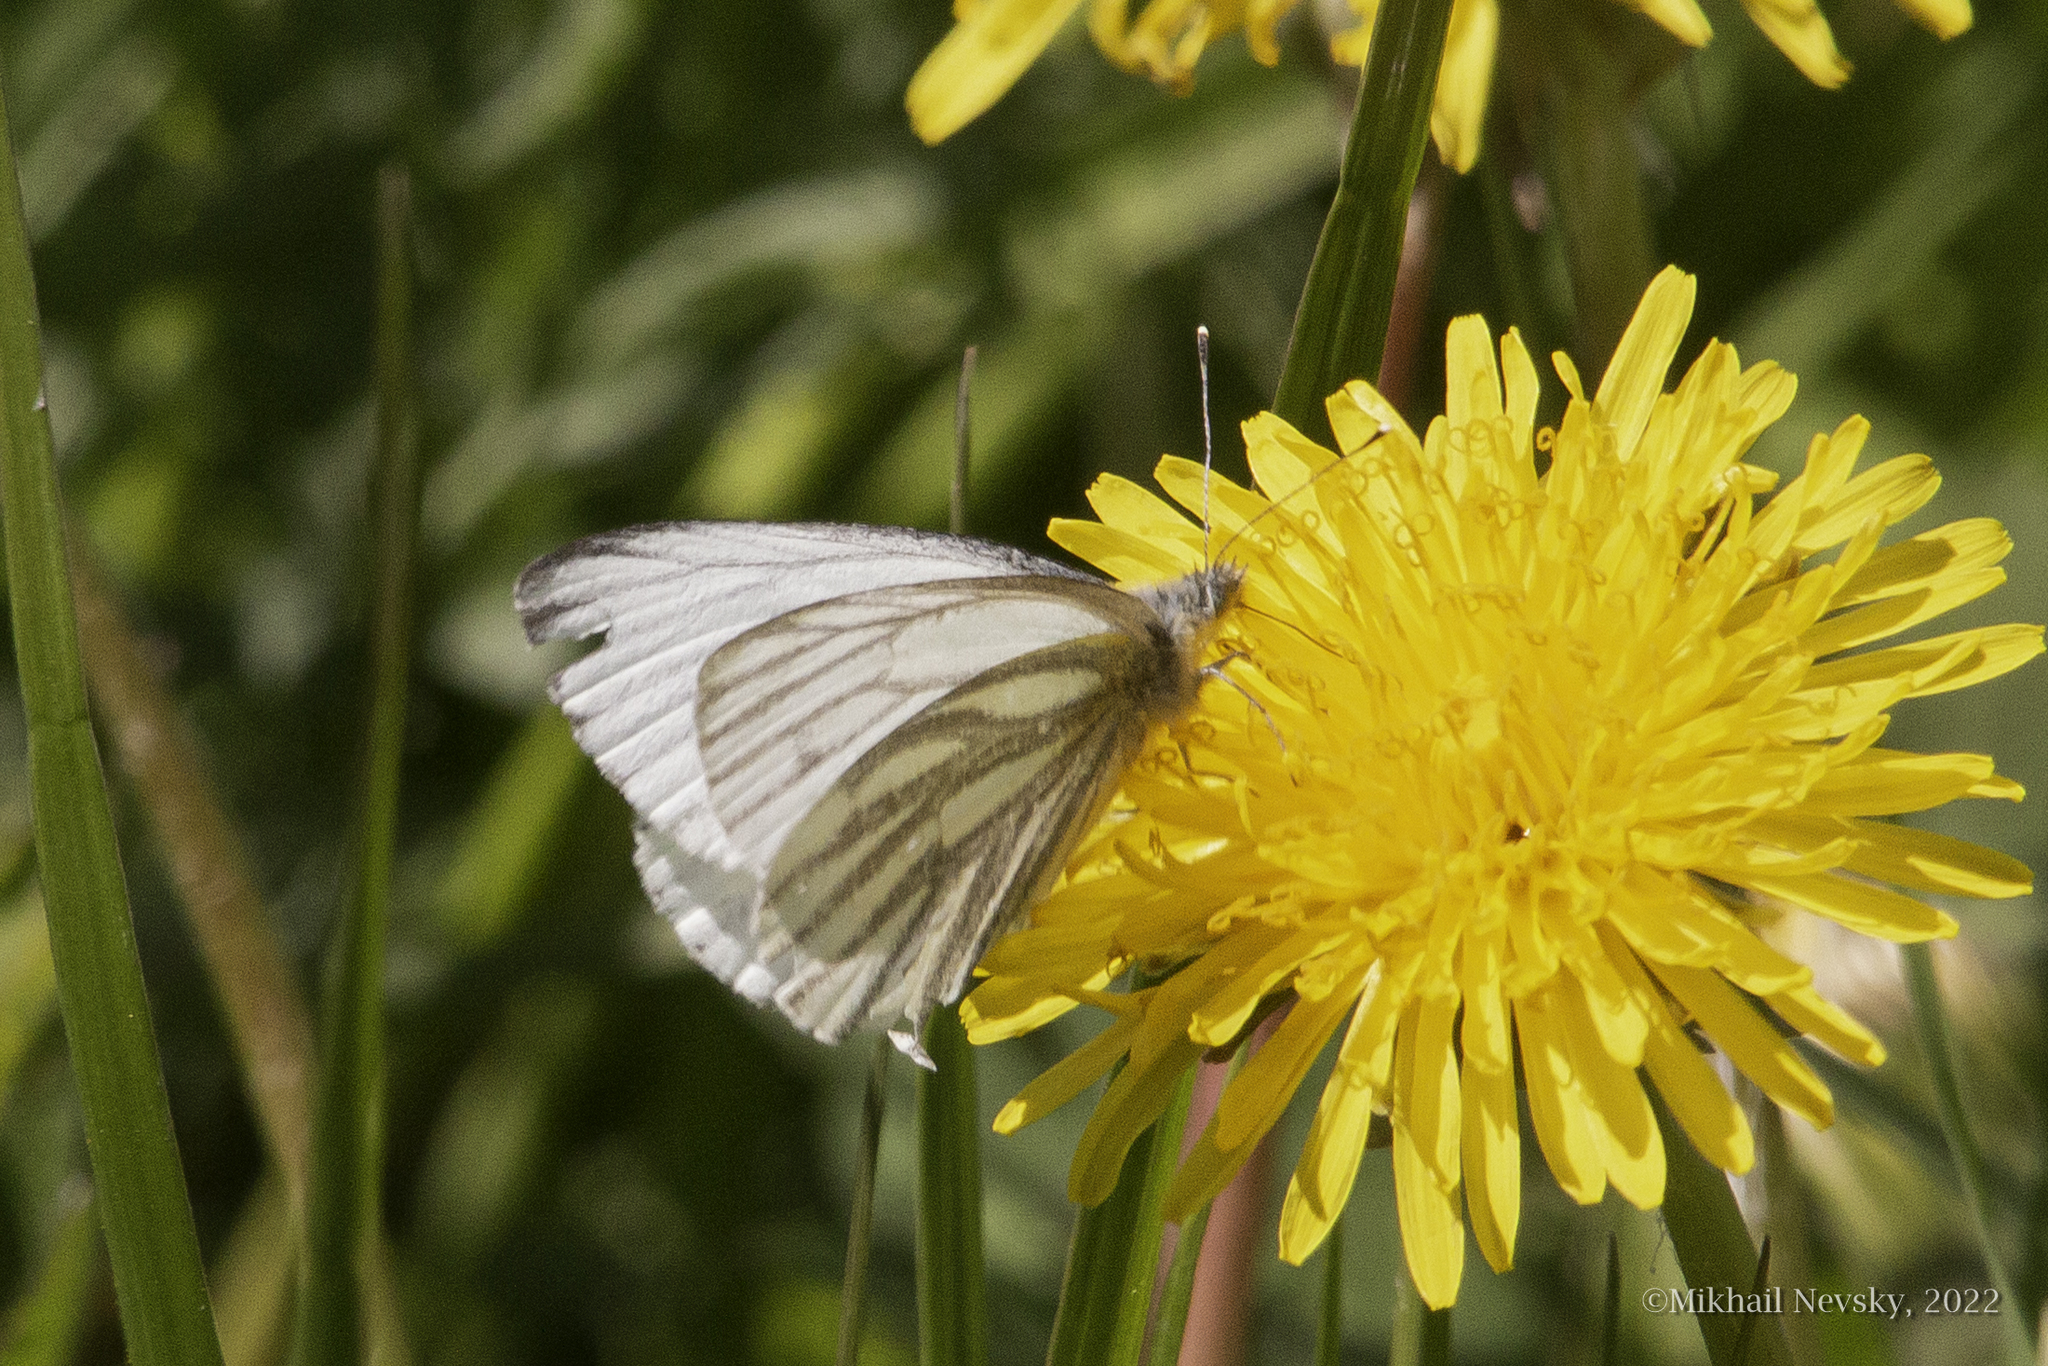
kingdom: Animalia
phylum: Arthropoda
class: Insecta
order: Lepidoptera
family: Pieridae
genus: Pieris
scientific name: Pieris napi
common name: Green-veined white
